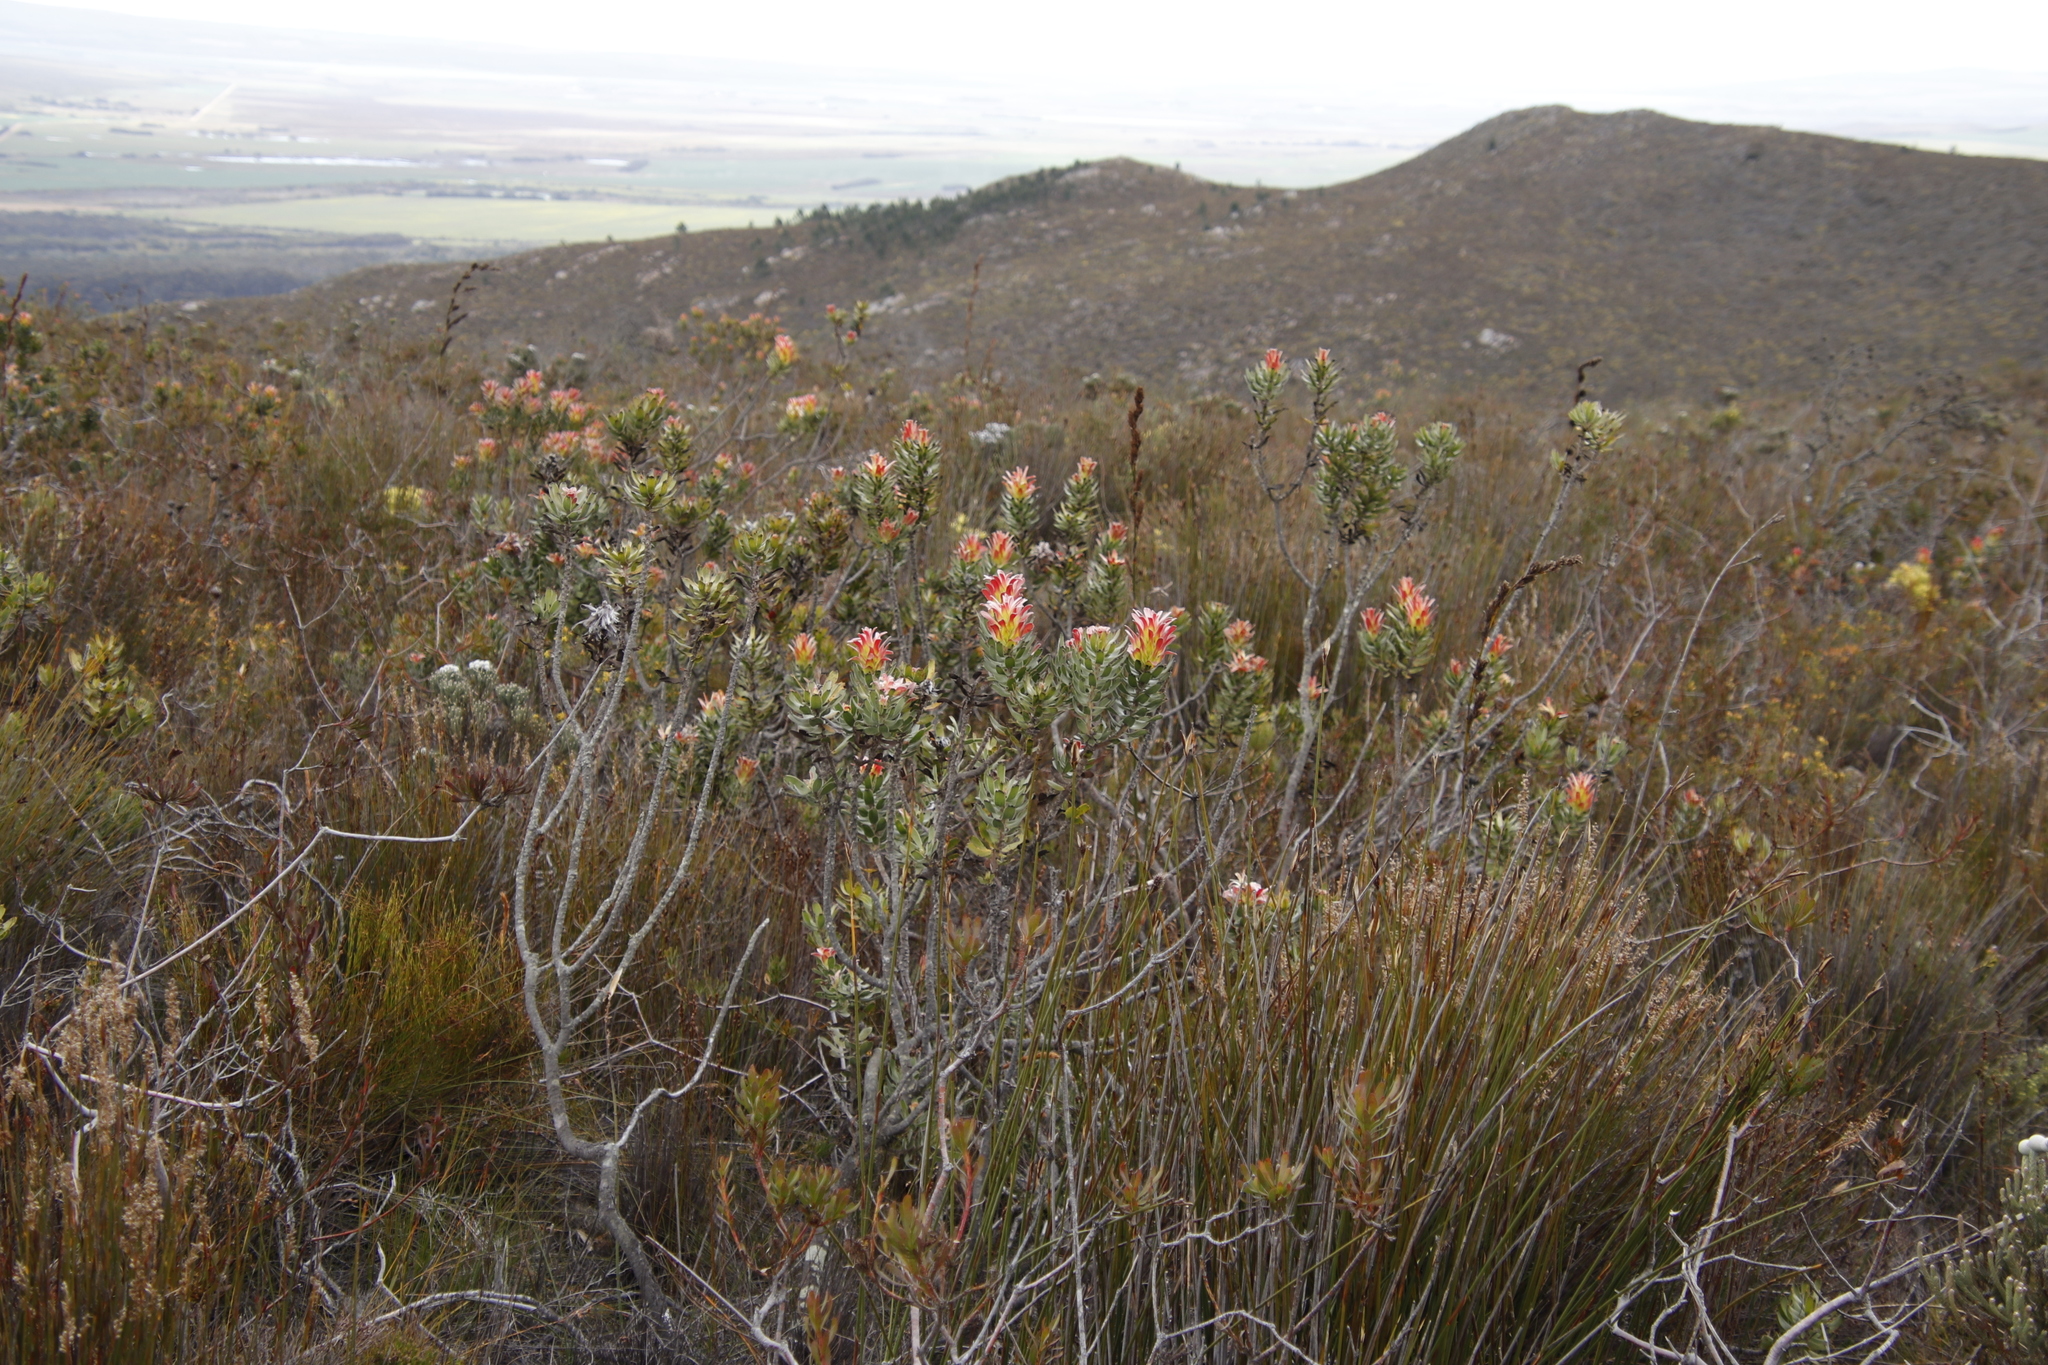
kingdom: Plantae
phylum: Tracheophyta
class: Magnoliopsida
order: Proteales
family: Proteaceae
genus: Mimetes
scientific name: Mimetes cucullatus
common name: Common pagoda
